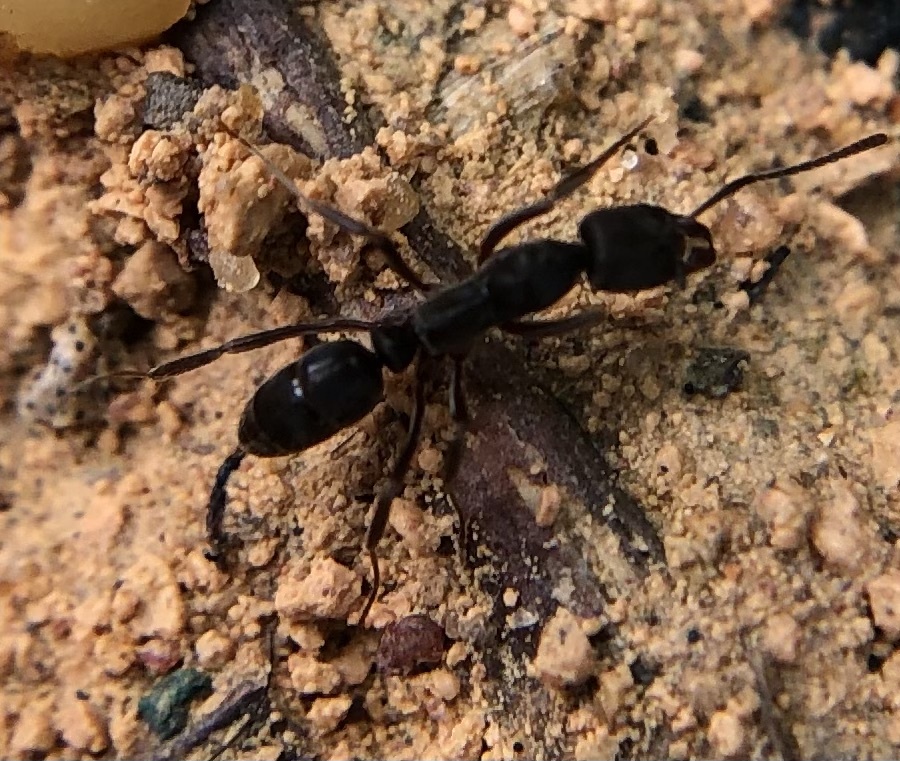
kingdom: Animalia
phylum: Arthropoda
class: Insecta
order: Hymenoptera
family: Formicidae
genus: Pachycondyla
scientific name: Pachycondyla constricta
